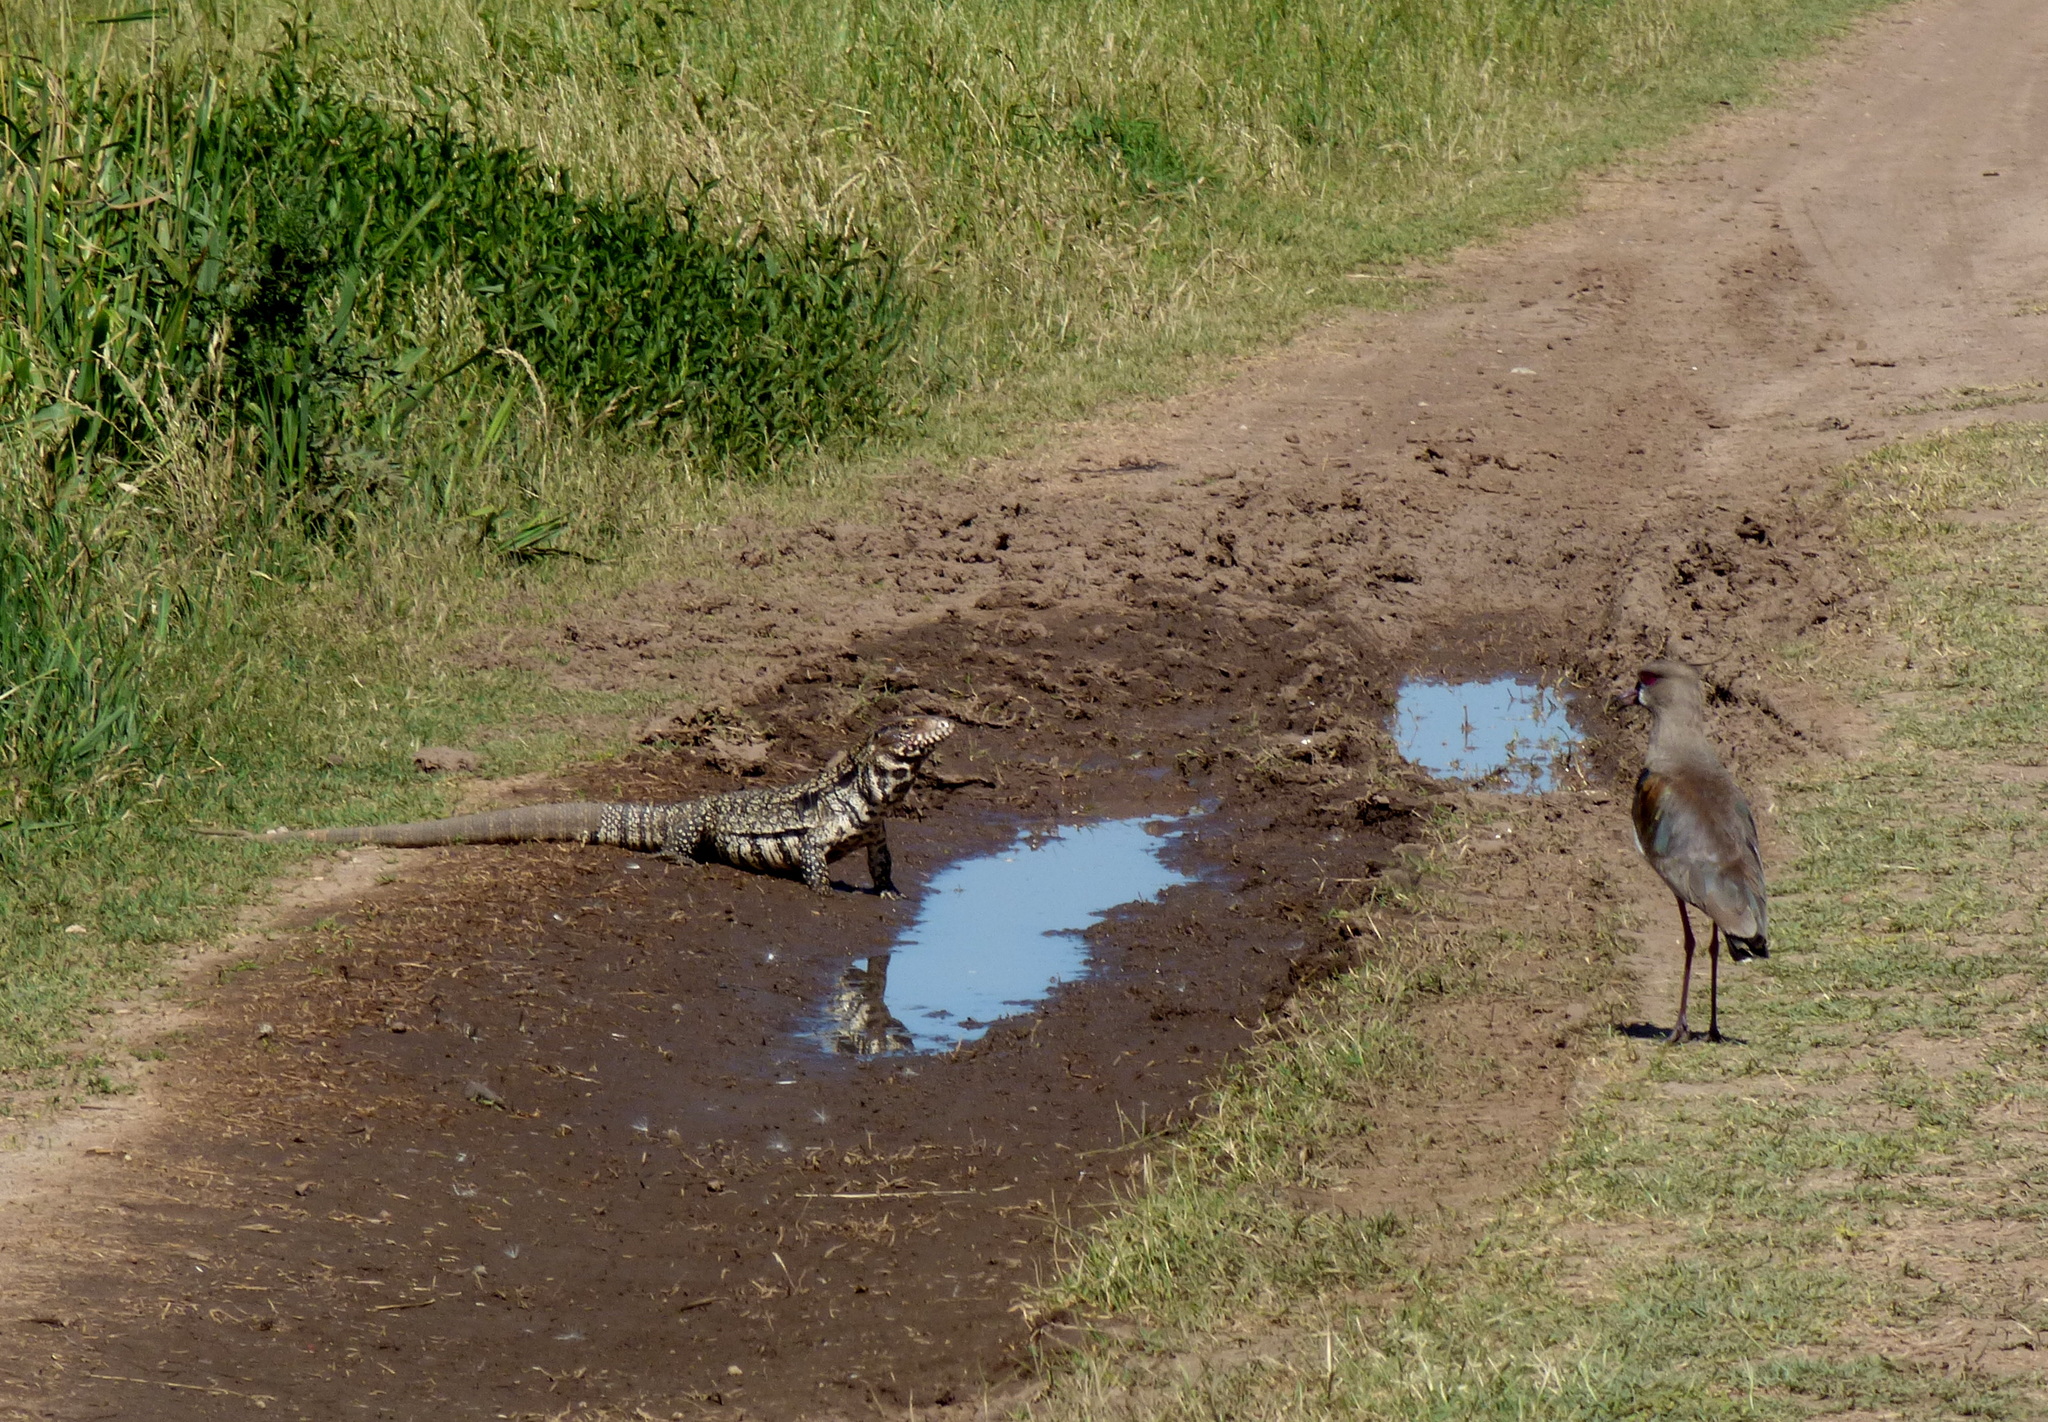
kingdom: Animalia
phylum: Chordata
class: Aves
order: Charadriiformes
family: Charadriidae
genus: Vanellus
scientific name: Vanellus chilensis
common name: Southern lapwing
